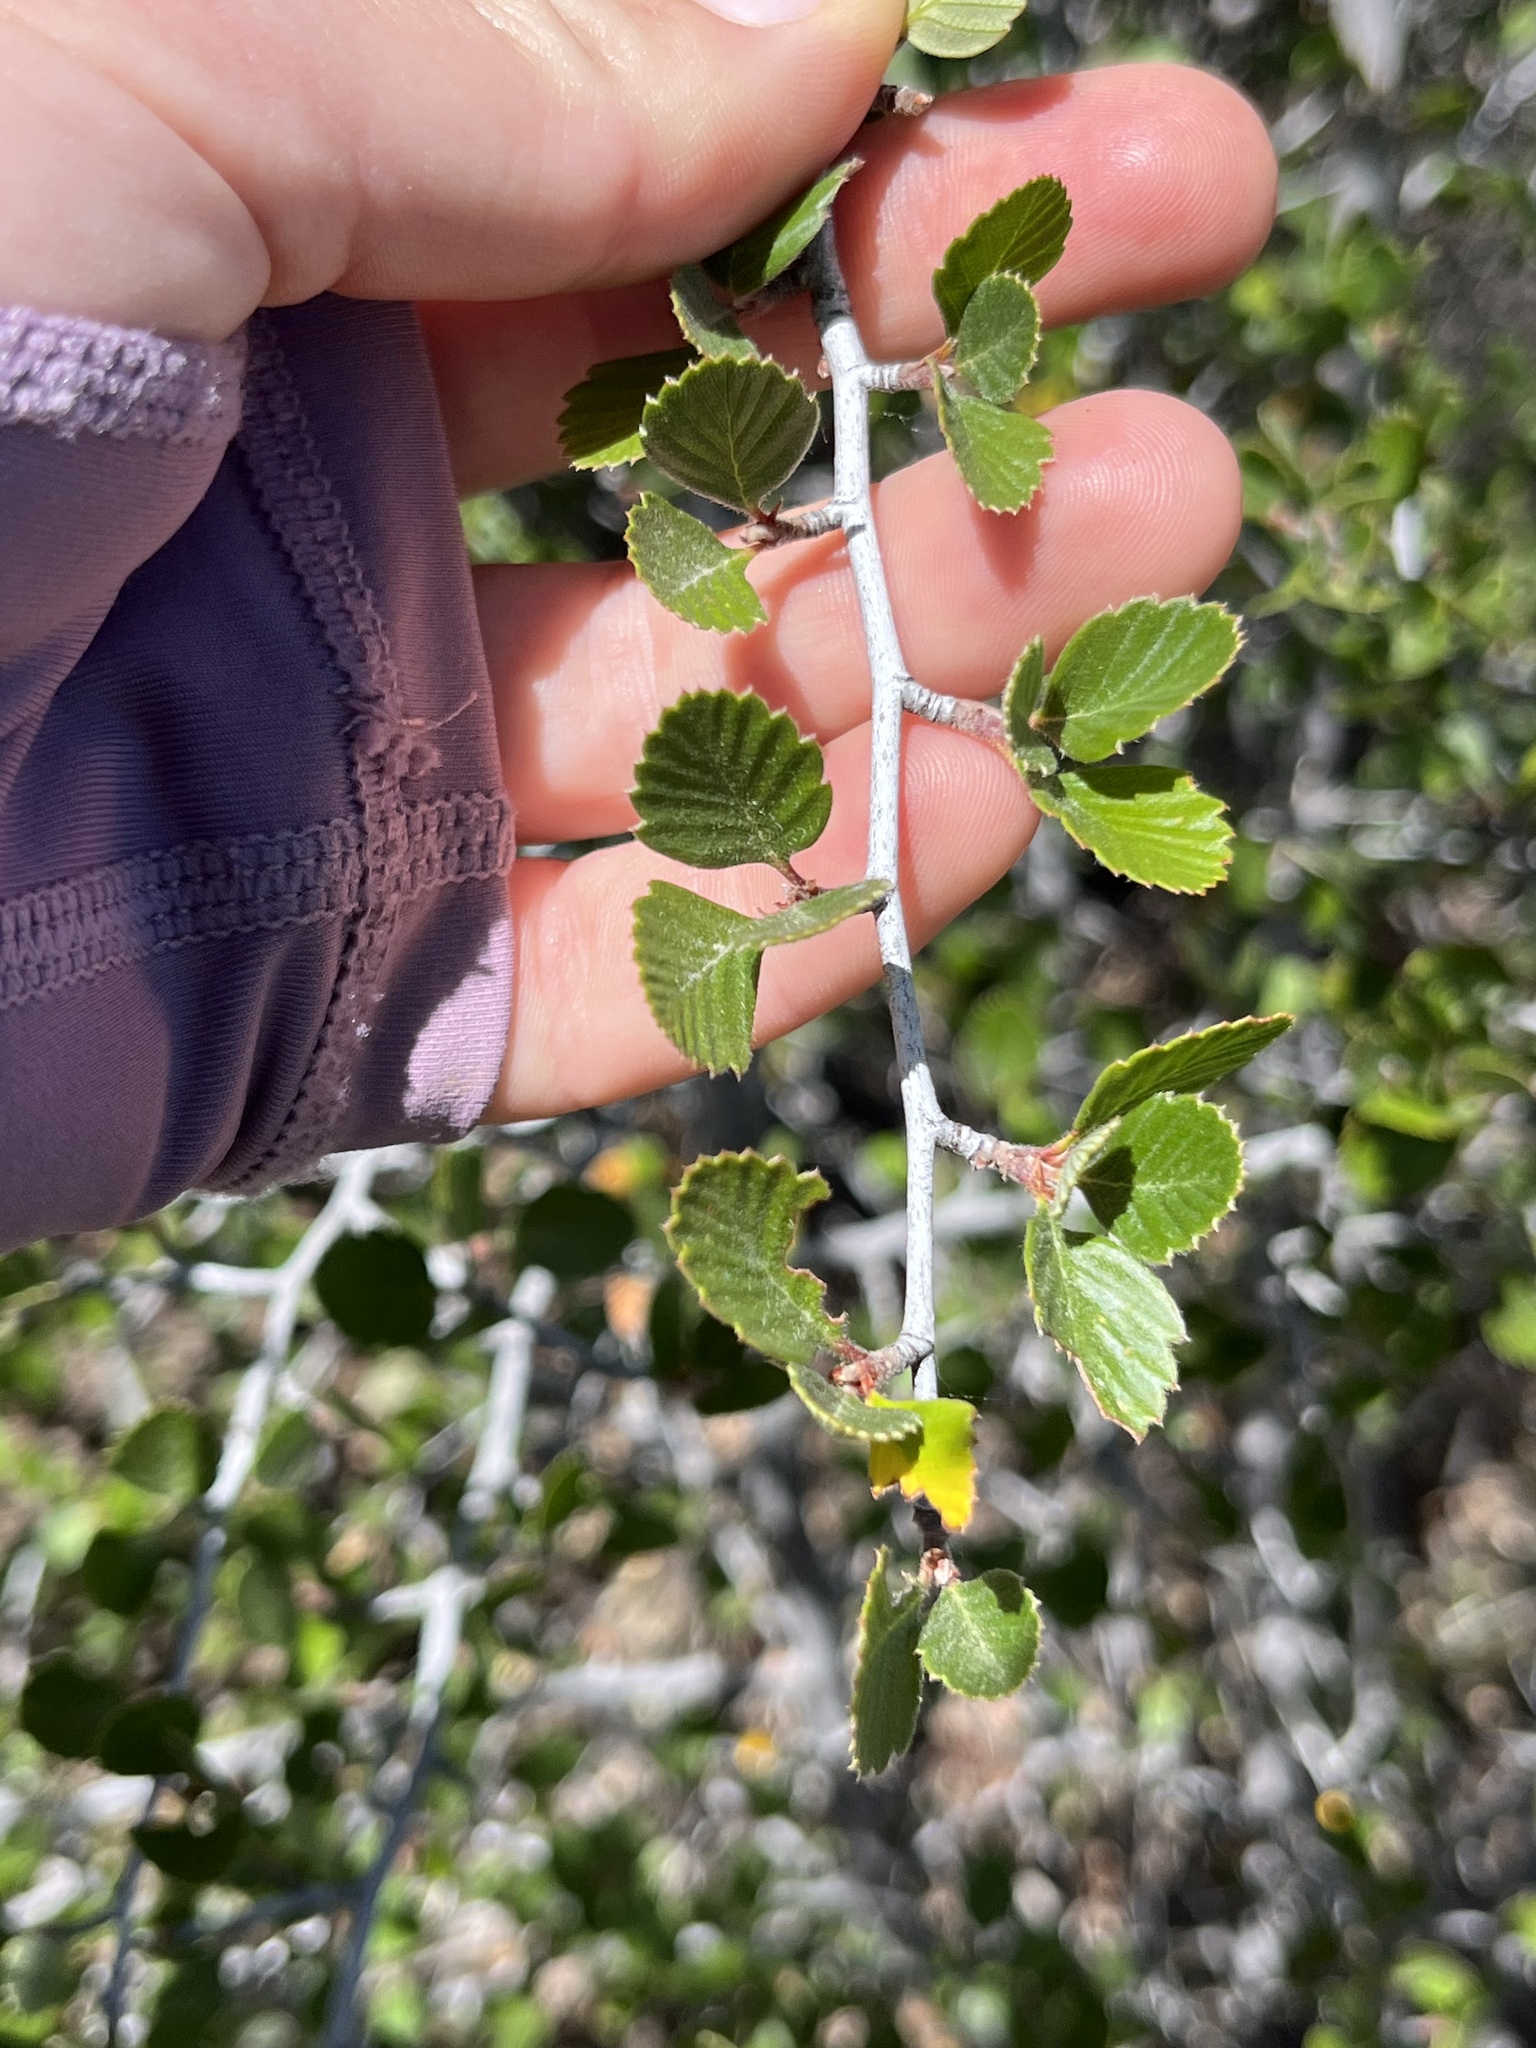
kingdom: Plantae
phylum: Tracheophyta
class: Magnoliopsida
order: Rosales
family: Rosaceae
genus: Cercocarpus
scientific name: Cercocarpus betuloides
